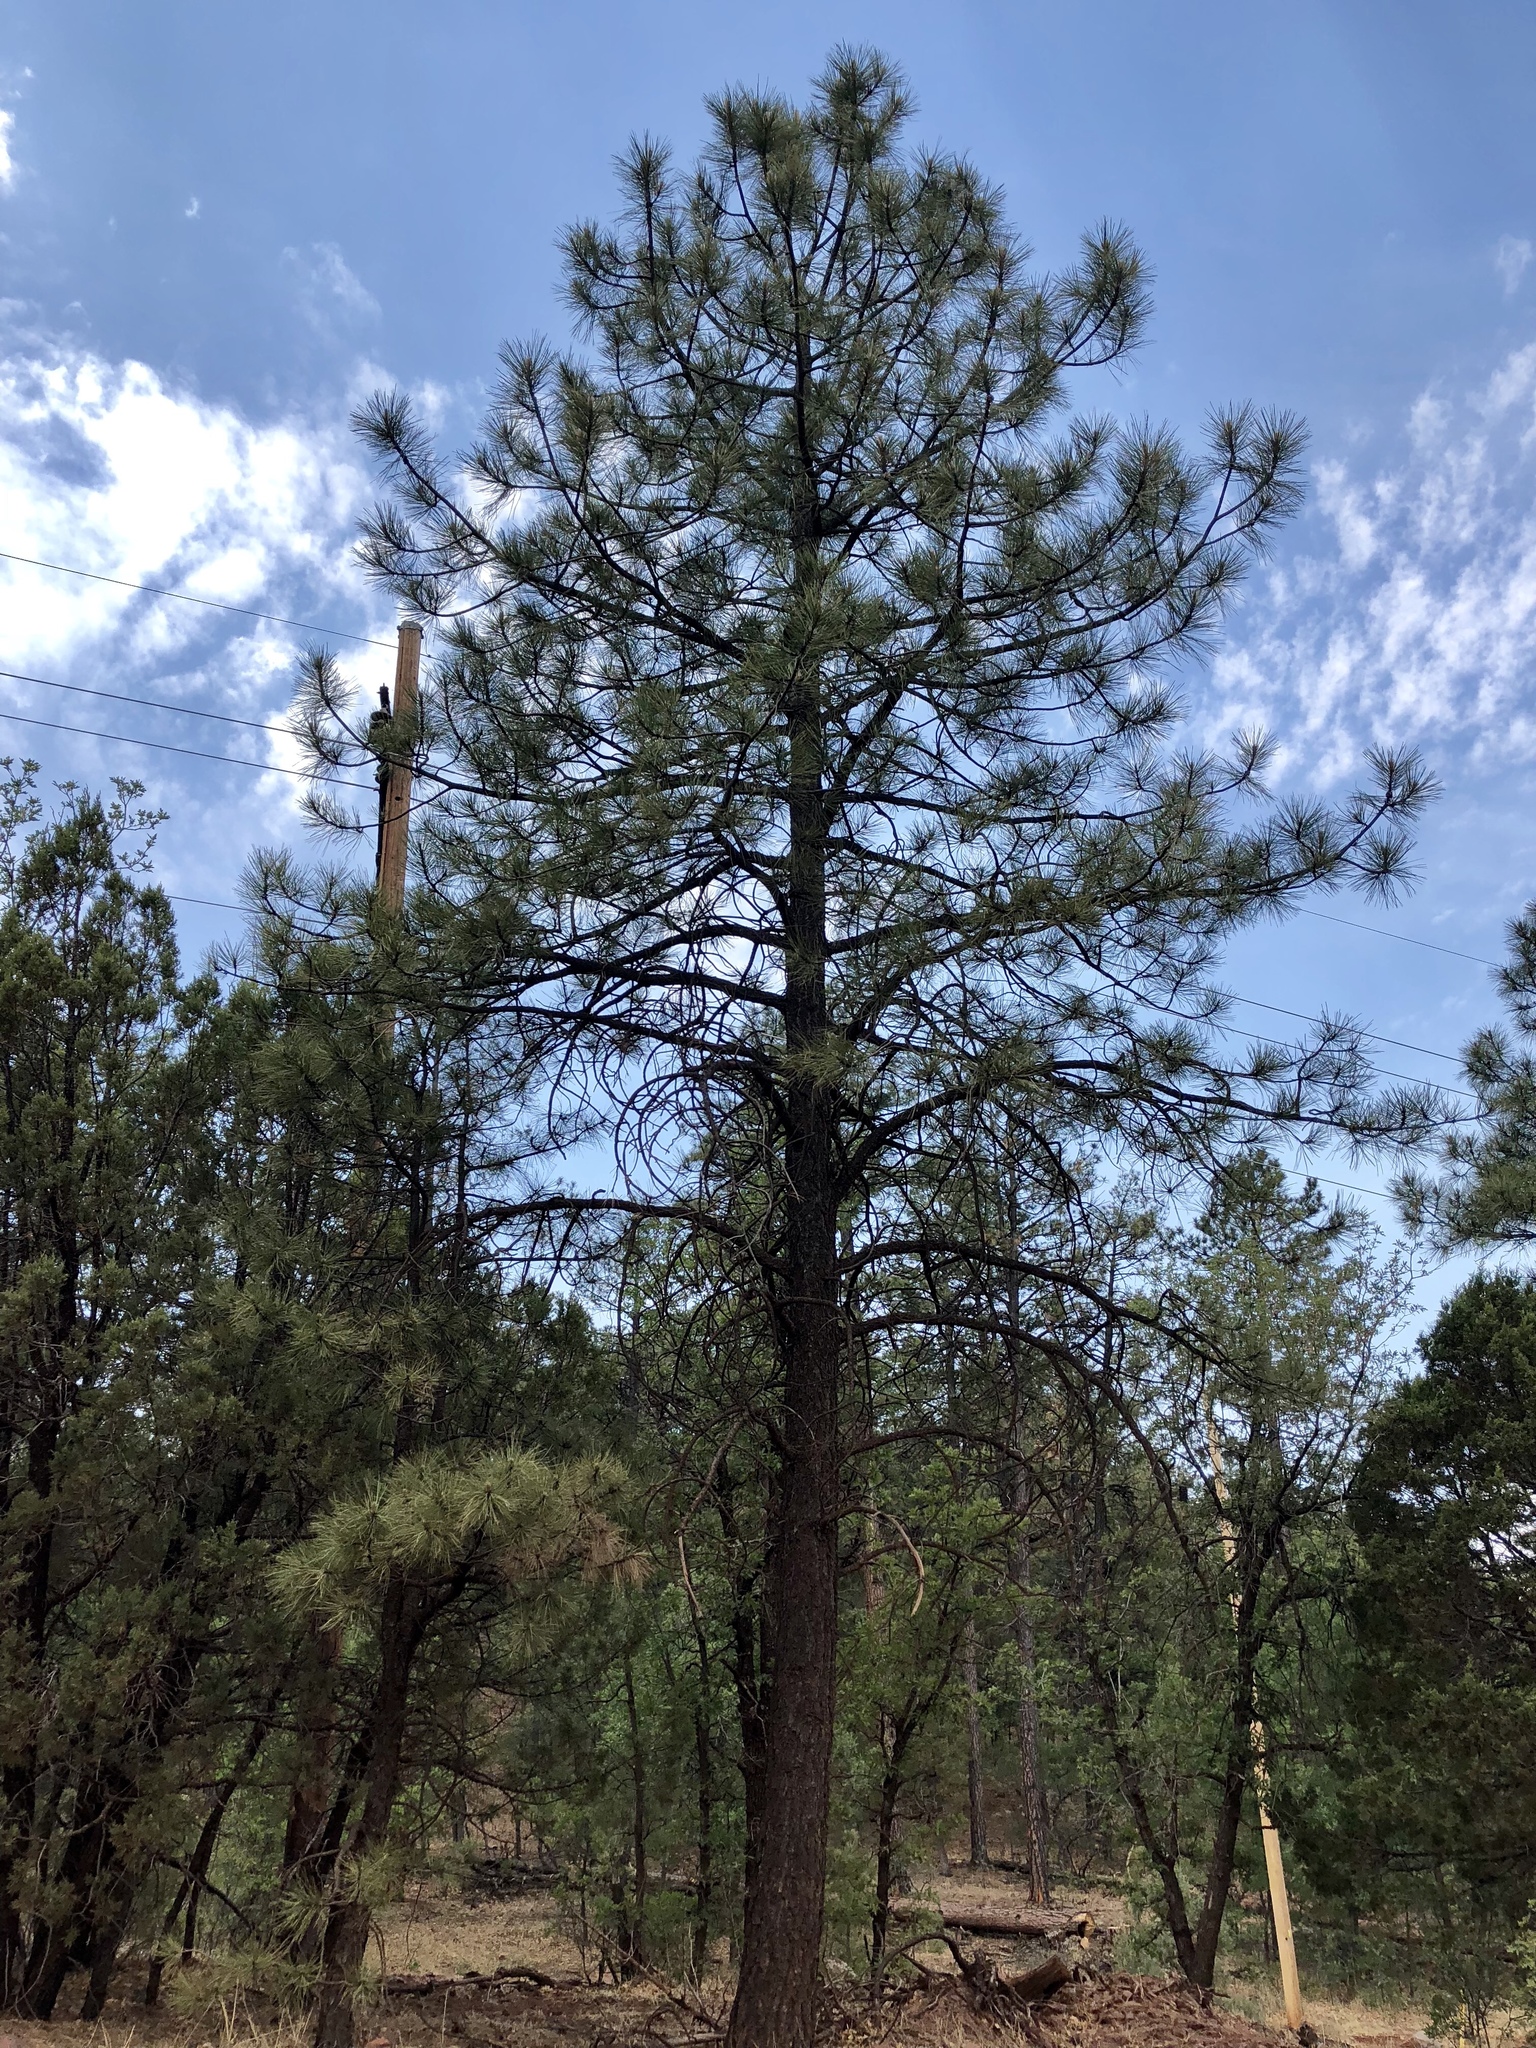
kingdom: Plantae
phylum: Tracheophyta
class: Pinopsida
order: Pinales
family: Pinaceae
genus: Pinus
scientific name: Pinus ponderosa
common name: Western yellow-pine
